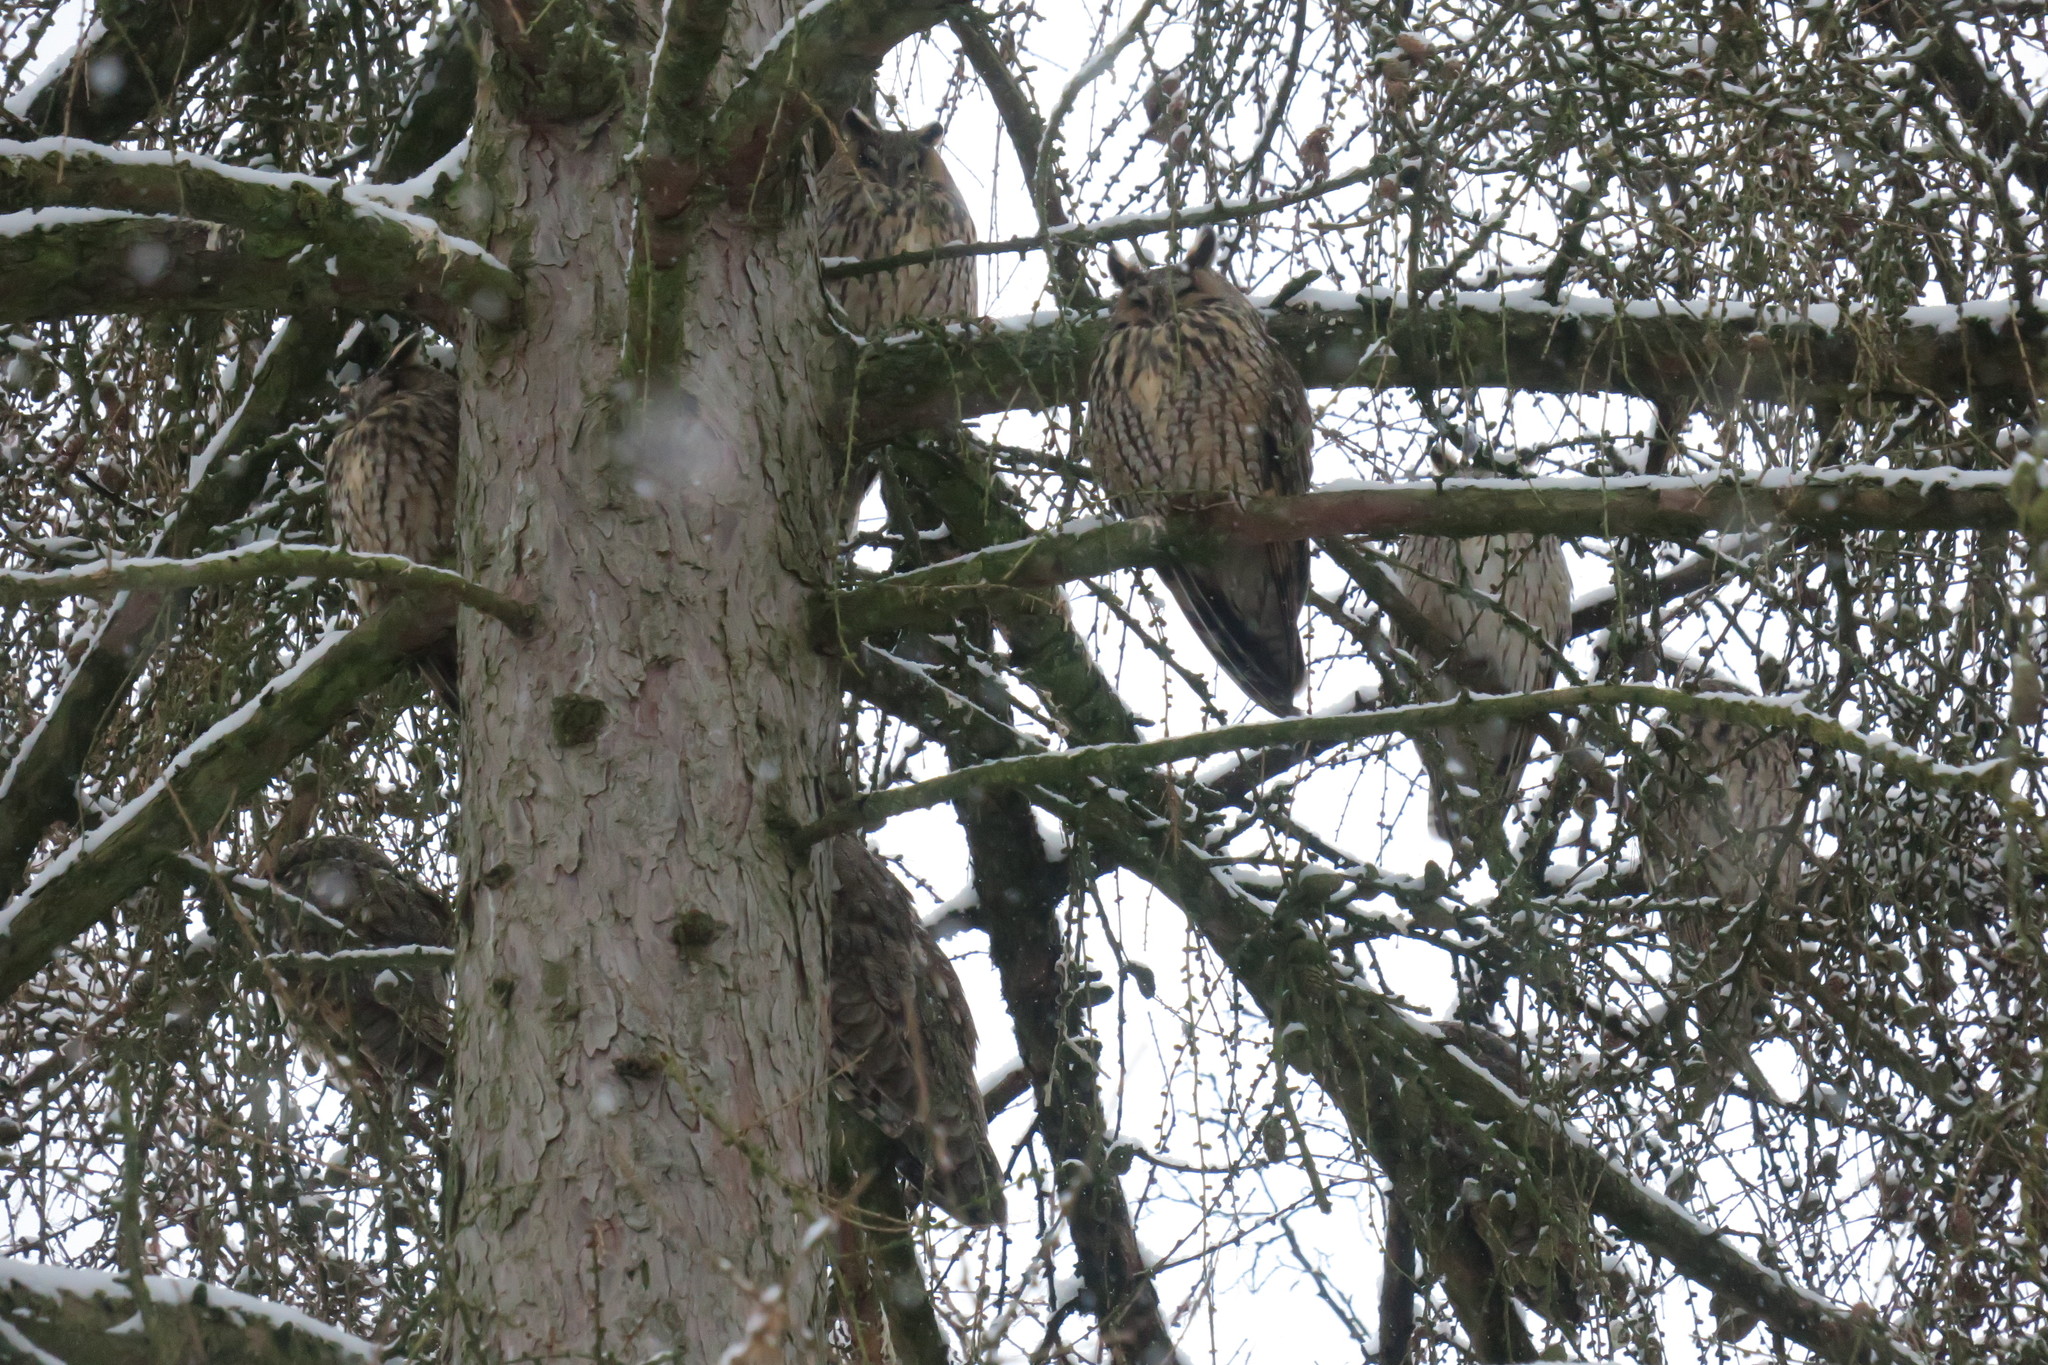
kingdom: Animalia
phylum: Chordata
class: Aves
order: Strigiformes
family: Strigidae
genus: Asio
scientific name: Asio otus
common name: Long-eared owl
